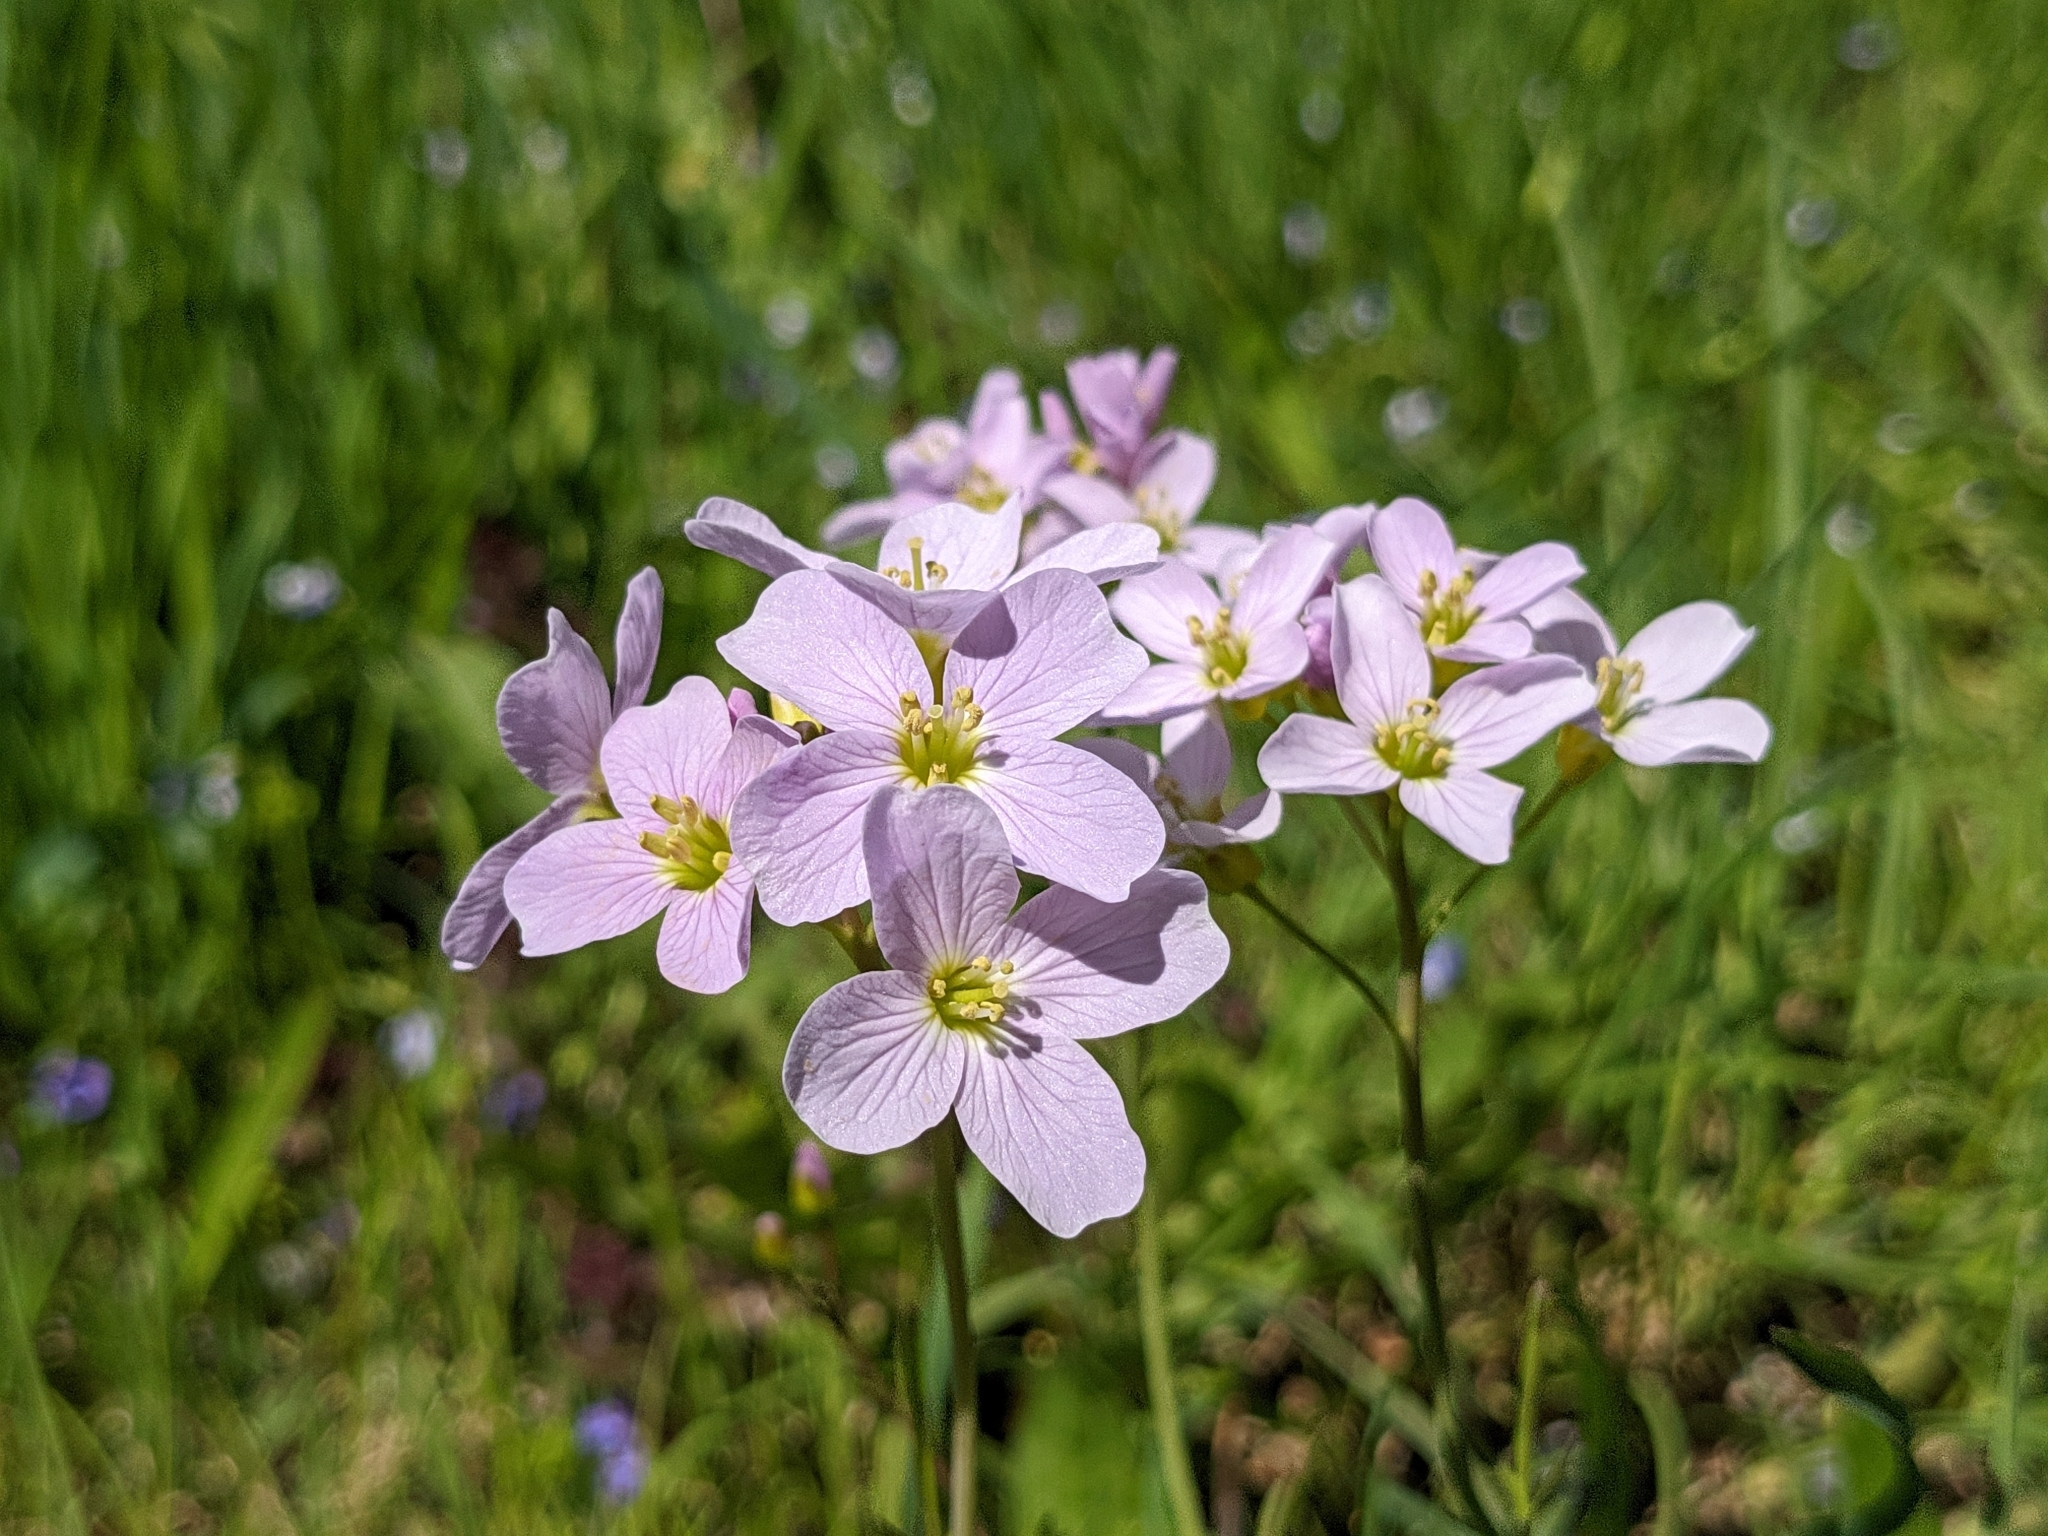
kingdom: Plantae
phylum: Tracheophyta
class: Magnoliopsida
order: Brassicales
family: Brassicaceae
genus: Cardamine
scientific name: Cardamine pratensis
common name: Cuckoo flower
